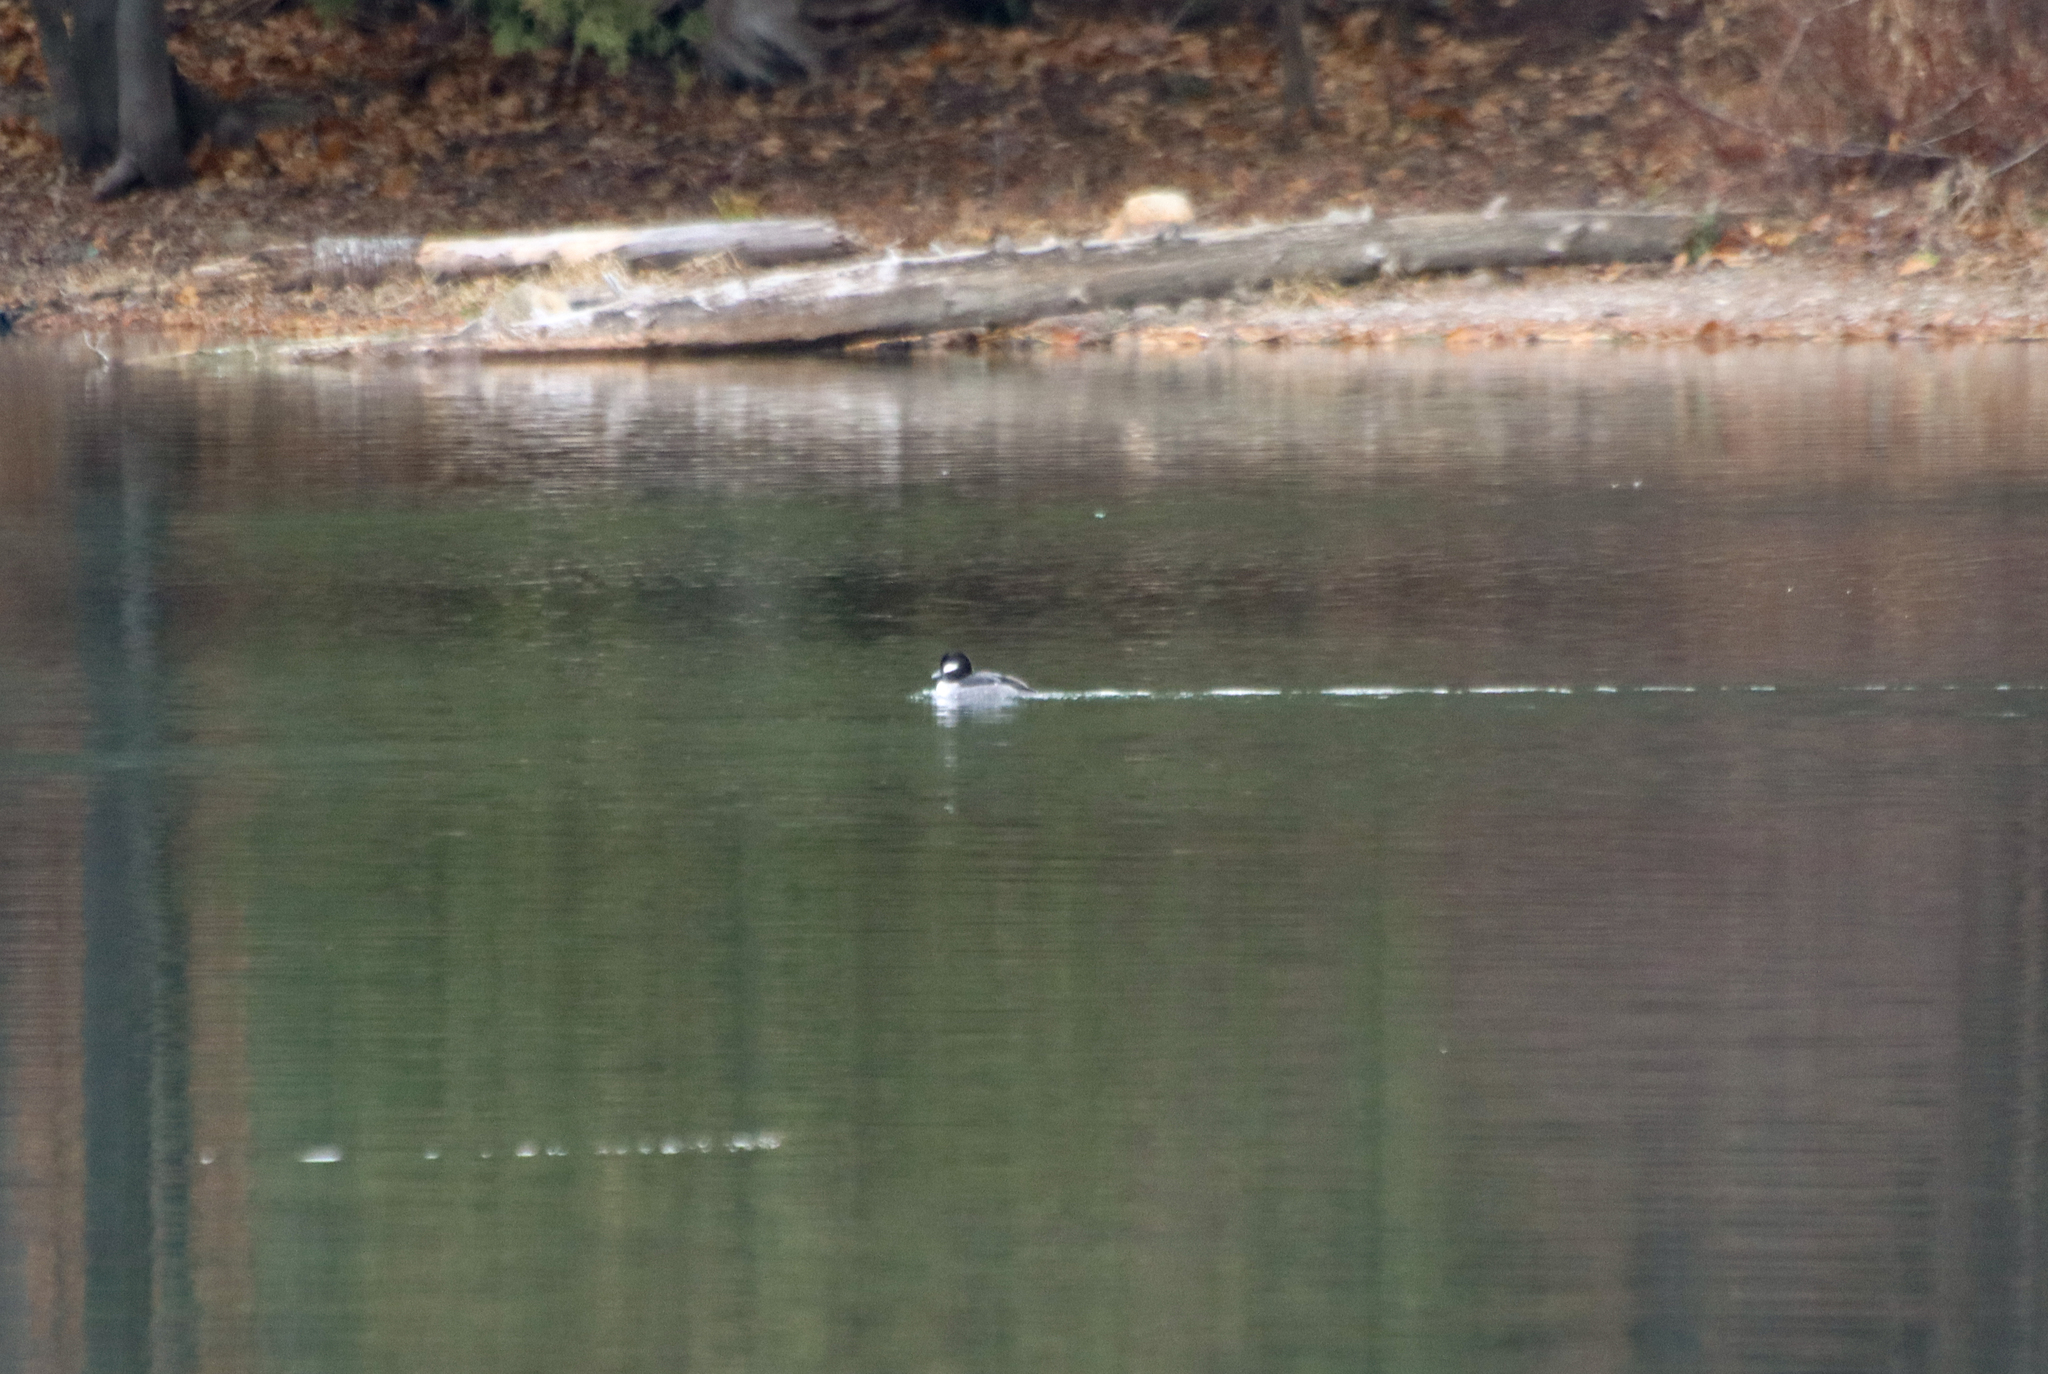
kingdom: Animalia
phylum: Chordata
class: Aves
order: Anseriformes
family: Anatidae
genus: Bucephala
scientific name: Bucephala albeola
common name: Bufflehead
